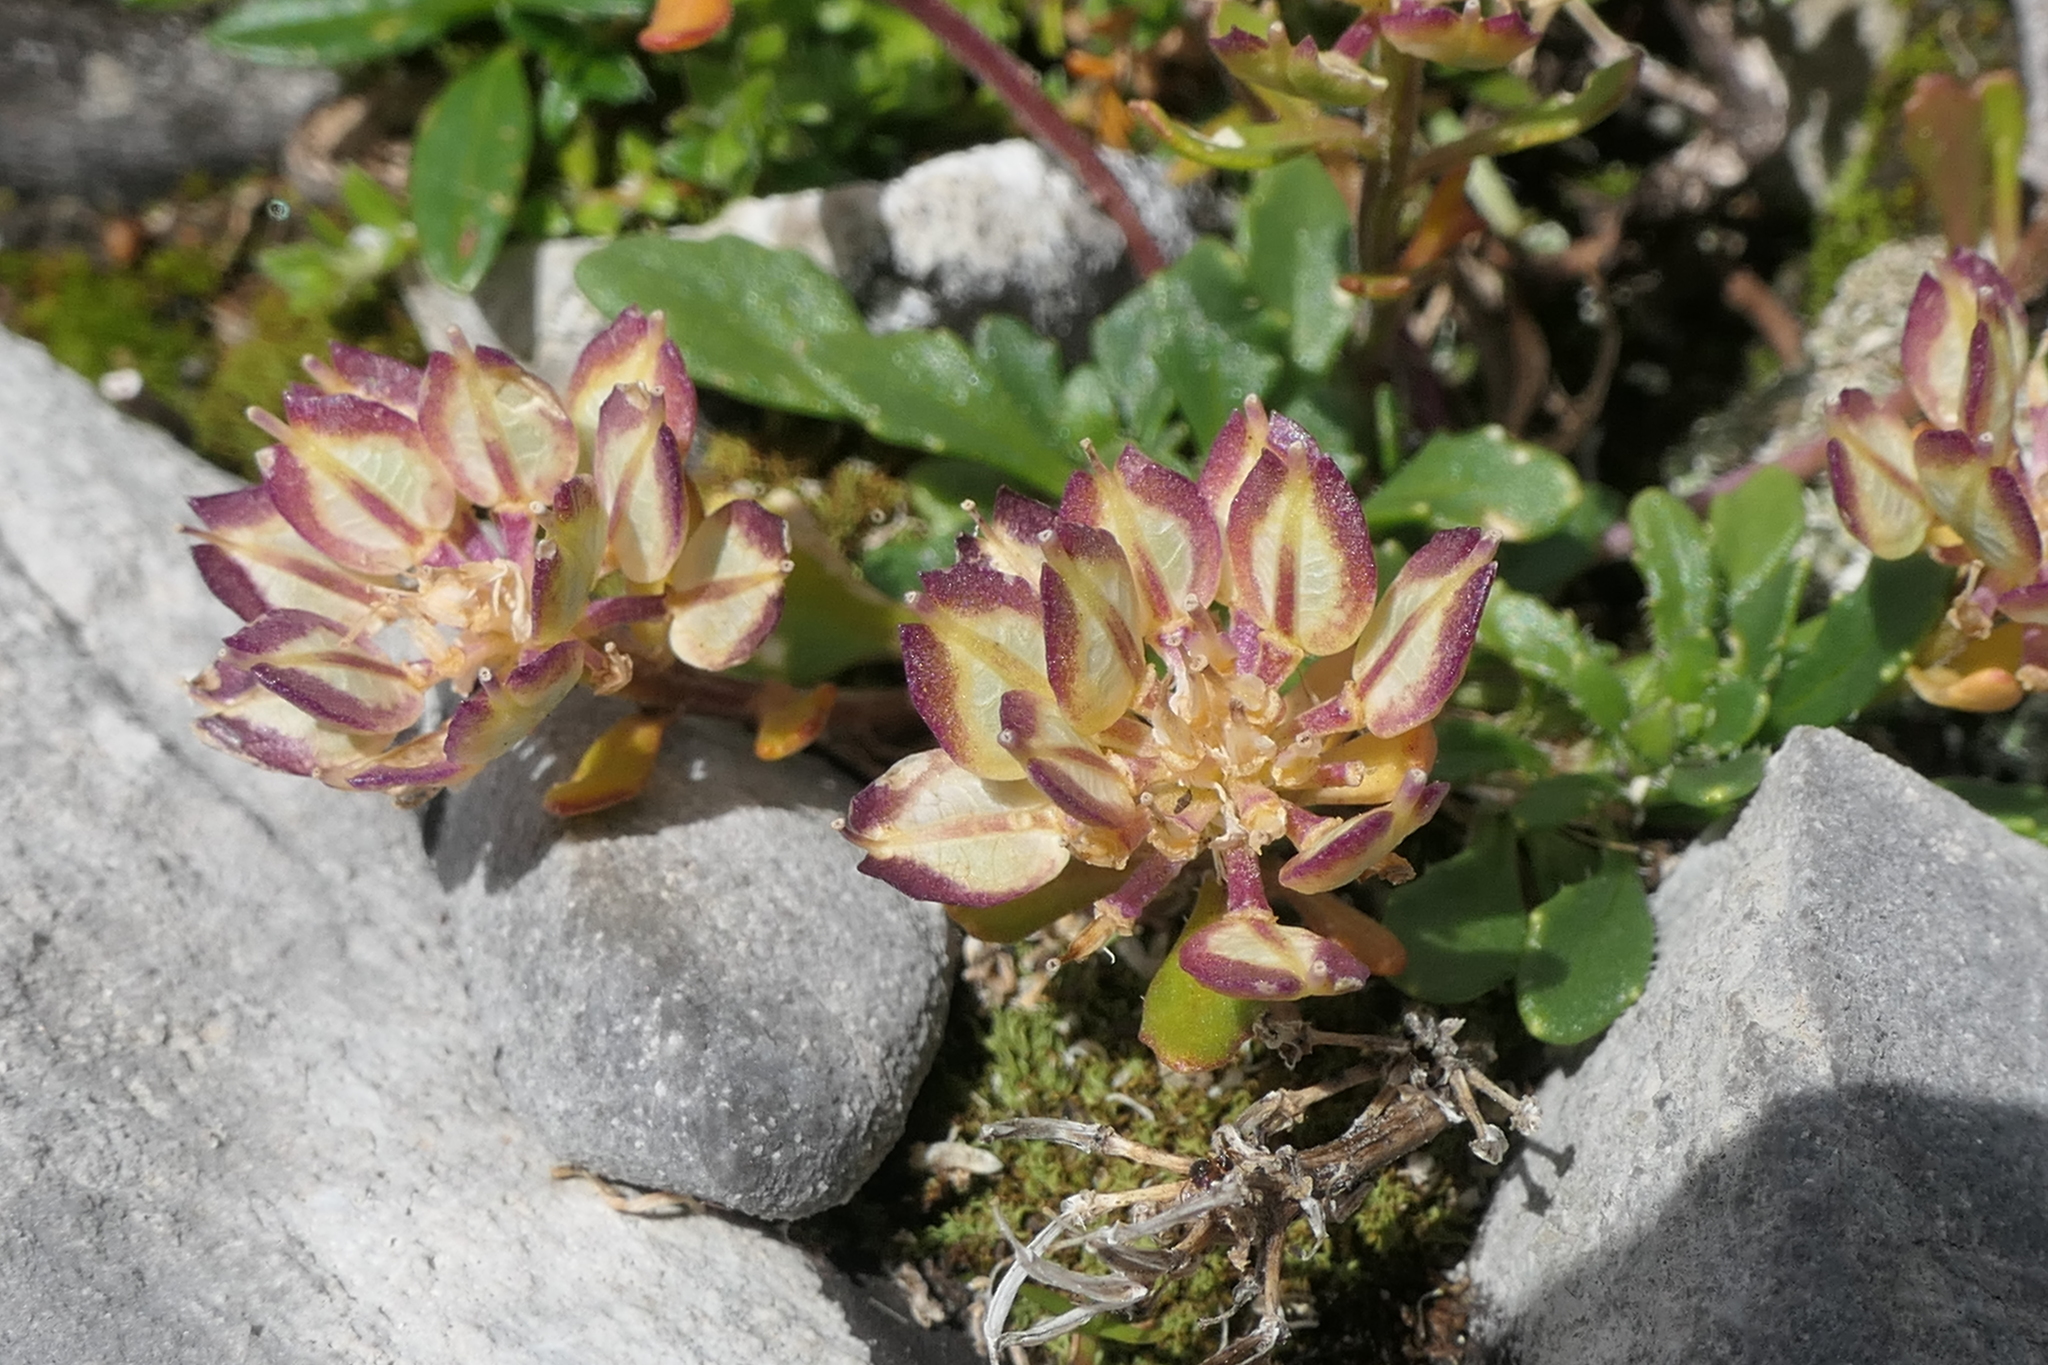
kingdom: Plantae
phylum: Tracheophyta
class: Magnoliopsida
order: Brassicales
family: Brassicaceae
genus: Iberis
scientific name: Iberis spathulata
